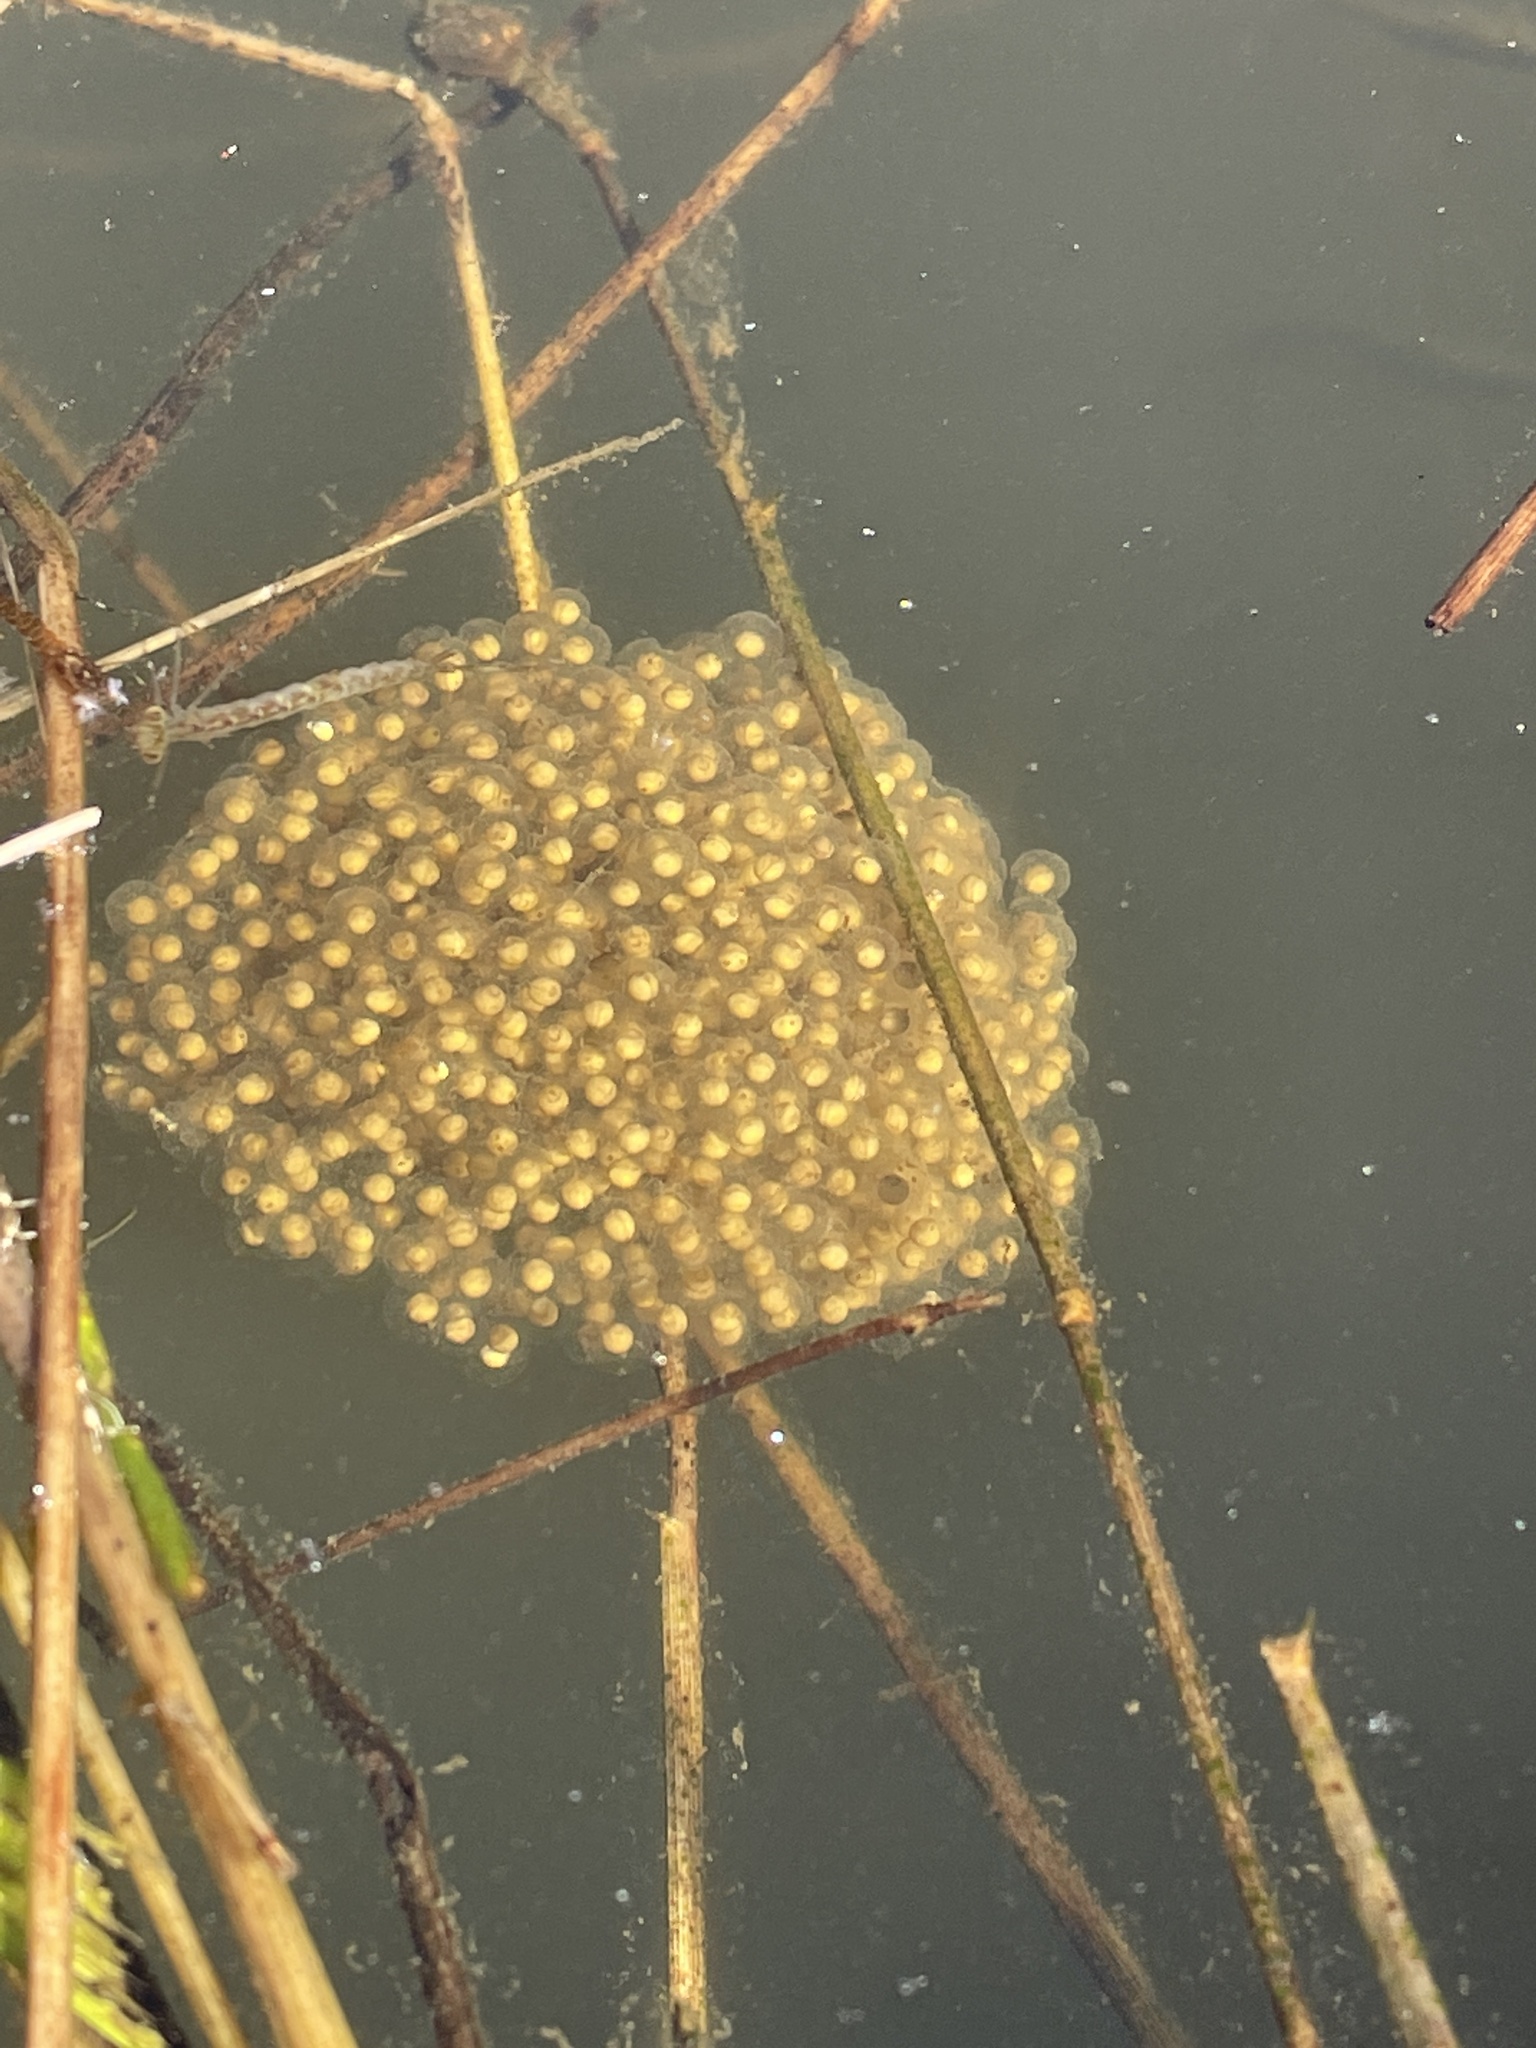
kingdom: Animalia
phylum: Chordata
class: Amphibia
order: Anura
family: Ranidae
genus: Lithobates
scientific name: Lithobates palustris
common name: Pickerel frog
